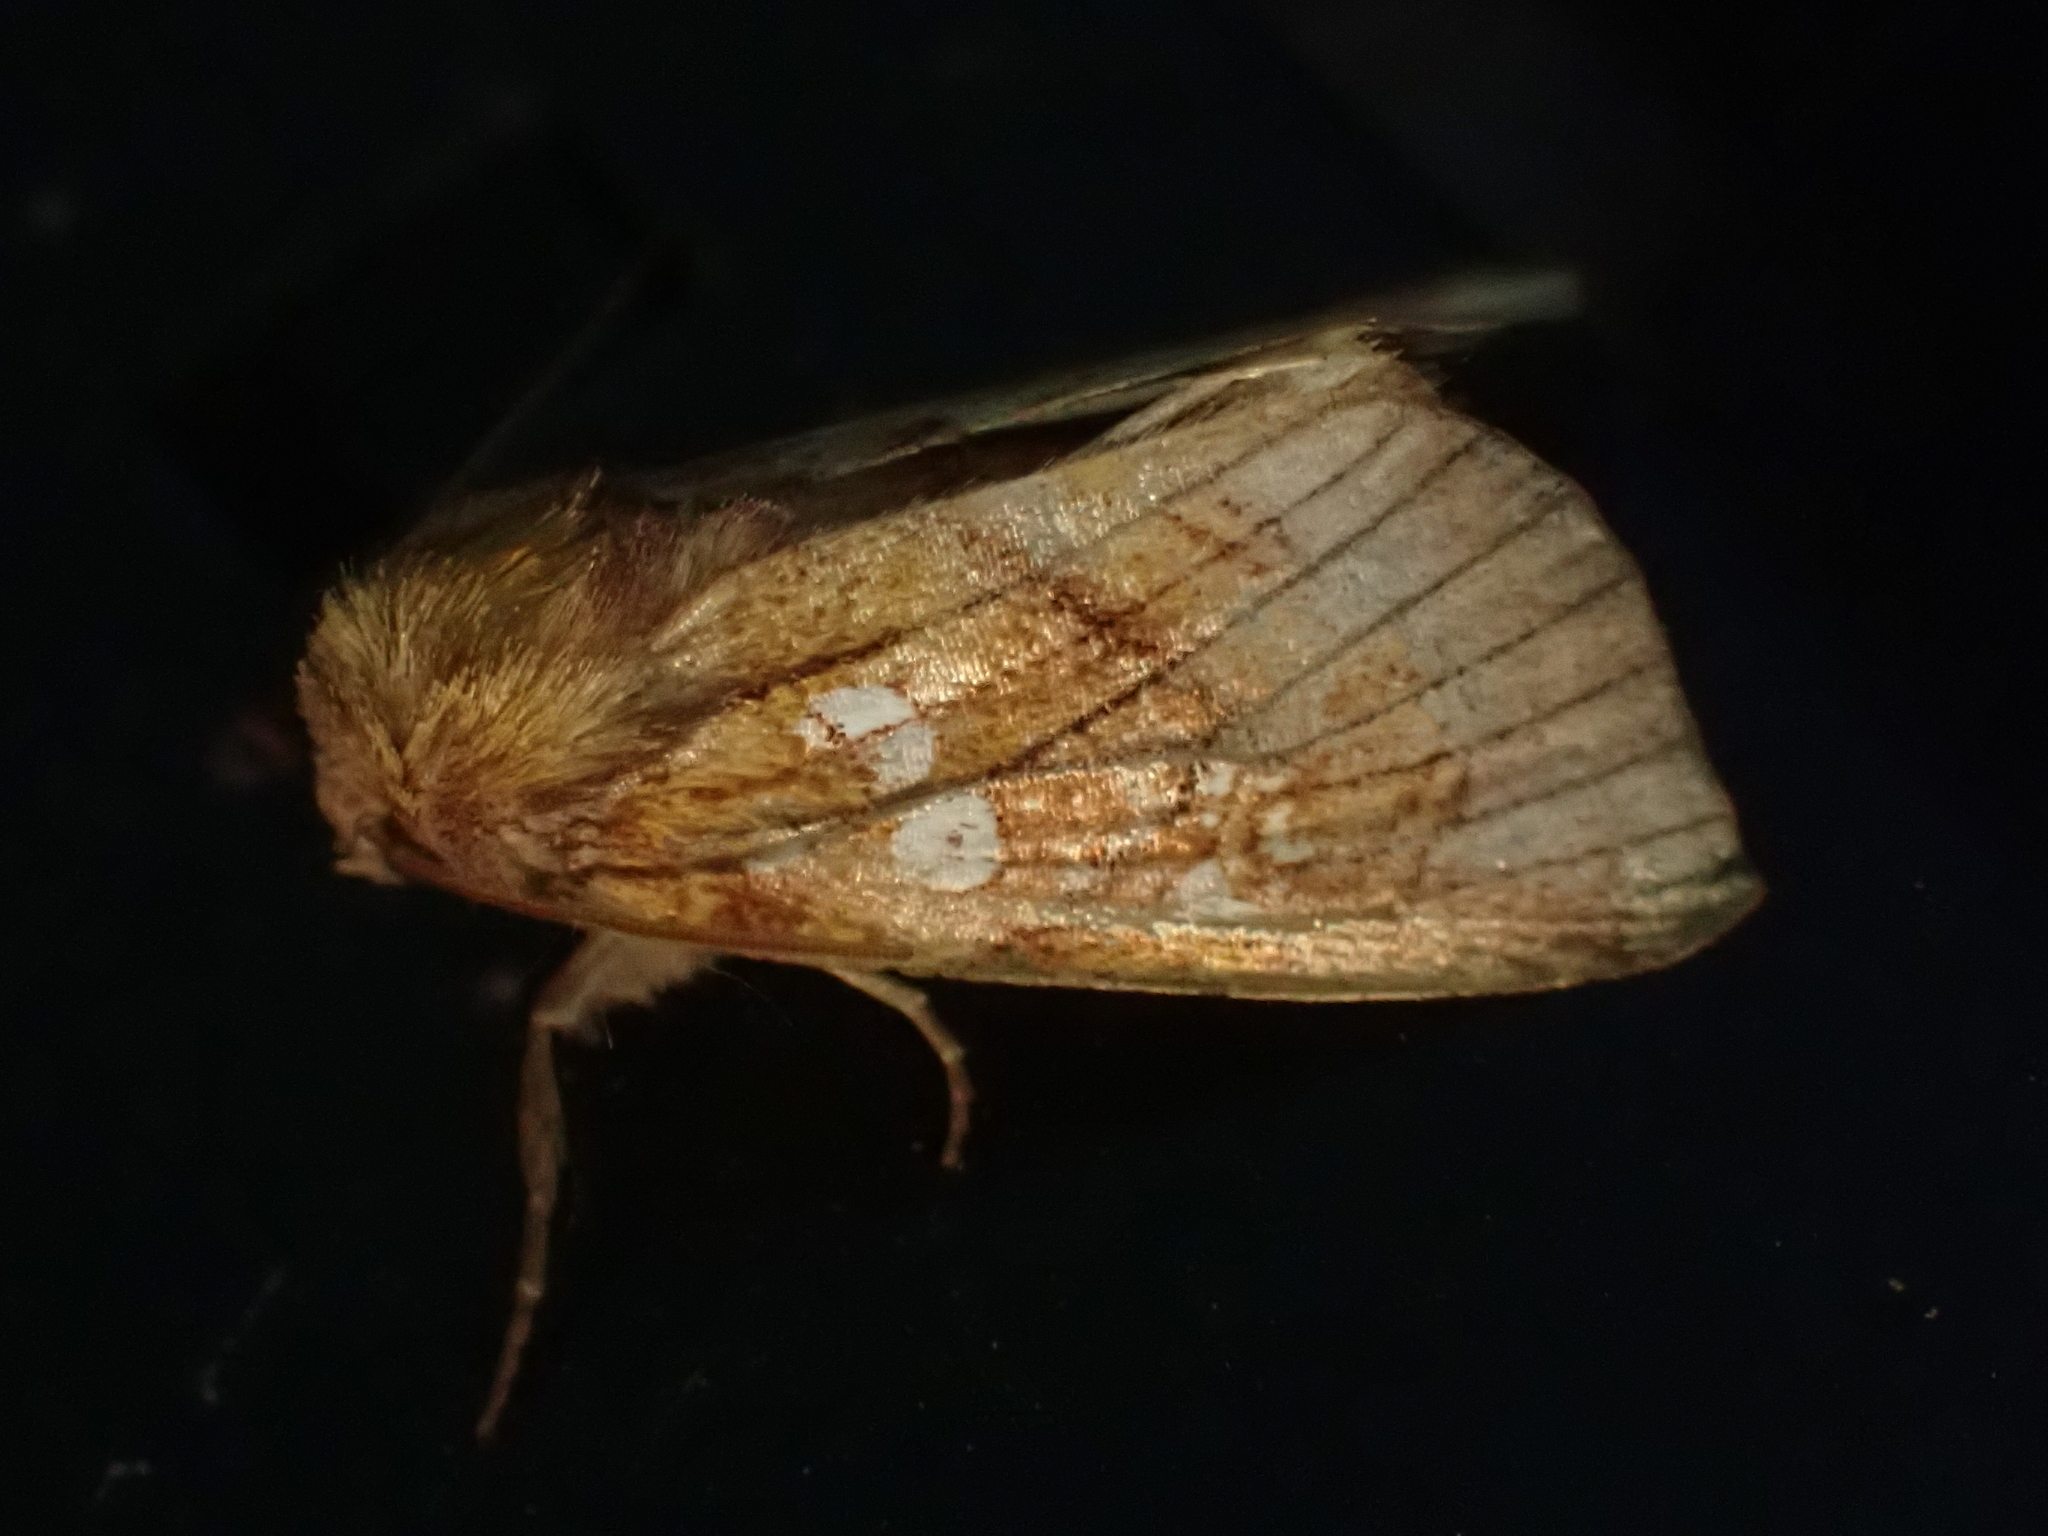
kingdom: Animalia
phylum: Arthropoda
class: Insecta
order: Lepidoptera
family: Noctuidae
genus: Papaipema
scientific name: Papaipema inquaesita
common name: Sensitive fern borer moth
